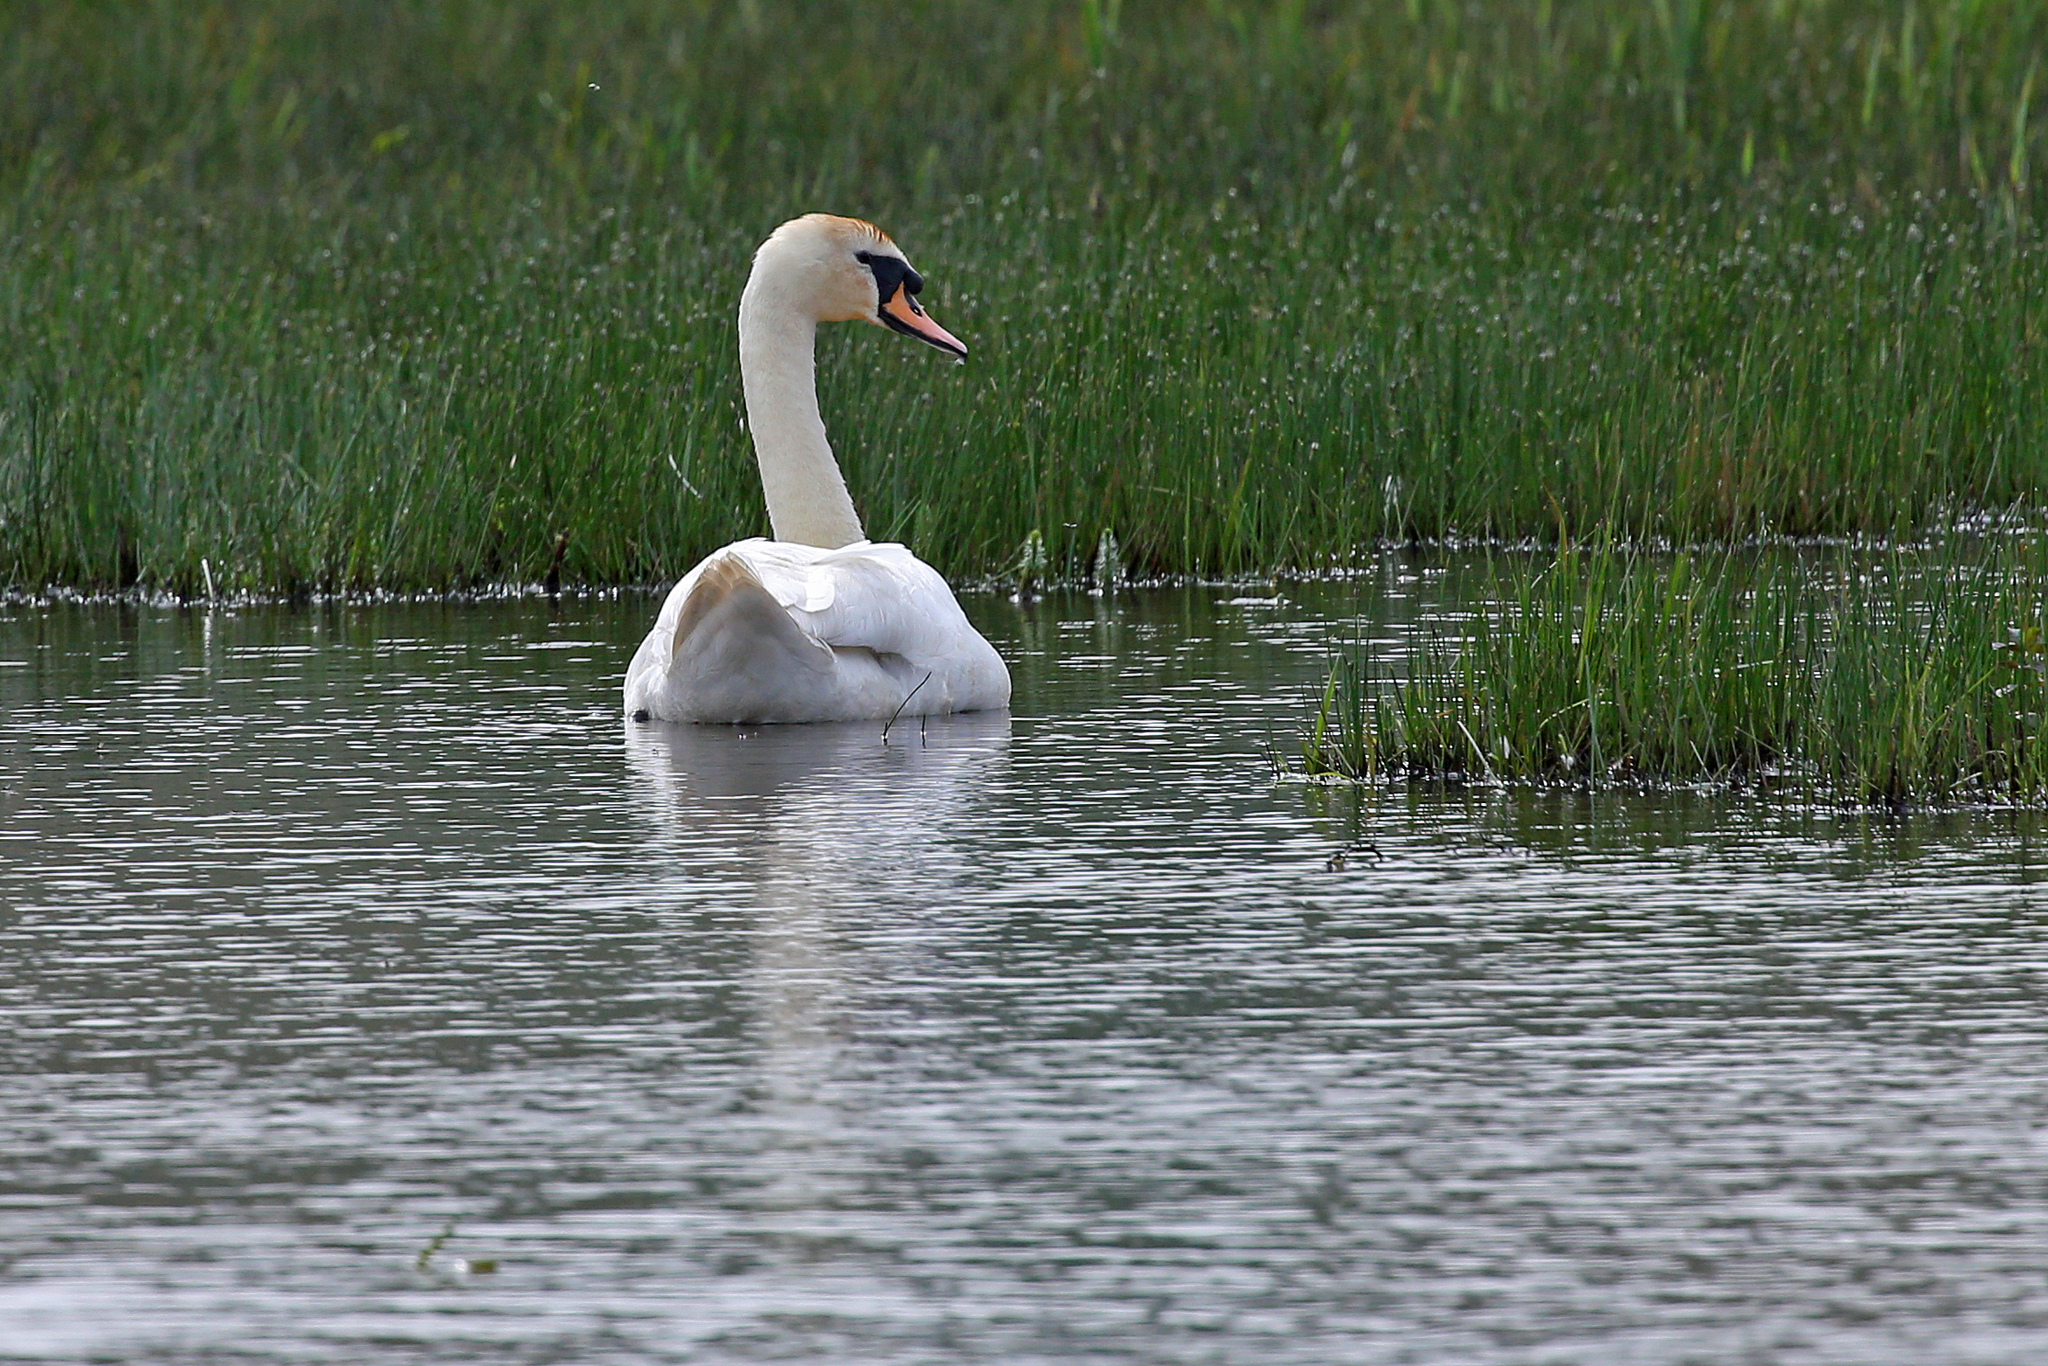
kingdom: Animalia
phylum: Chordata
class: Aves
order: Anseriformes
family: Anatidae
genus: Cygnus
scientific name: Cygnus olor
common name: Mute swan
